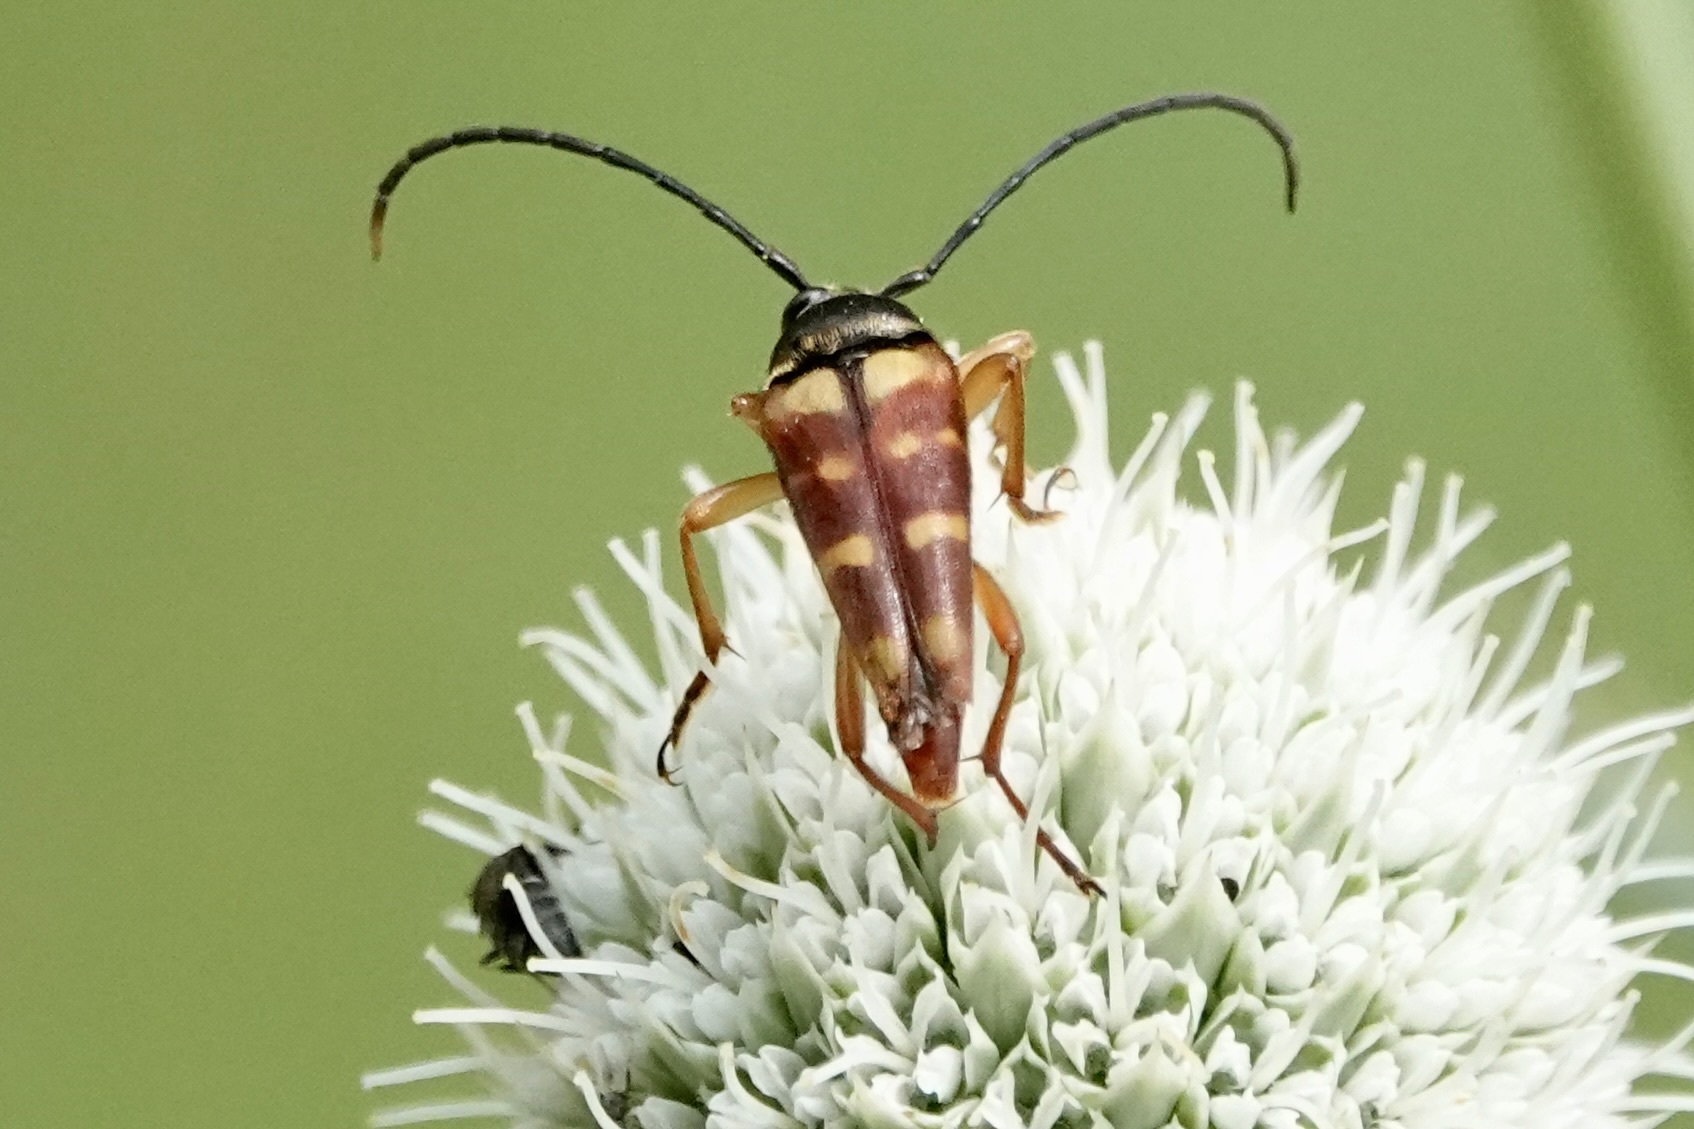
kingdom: Animalia
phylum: Arthropoda
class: Insecta
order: Coleoptera
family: Cerambycidae
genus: Typocerus
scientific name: Typocerus velutinus
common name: Banded longhorn beetle
